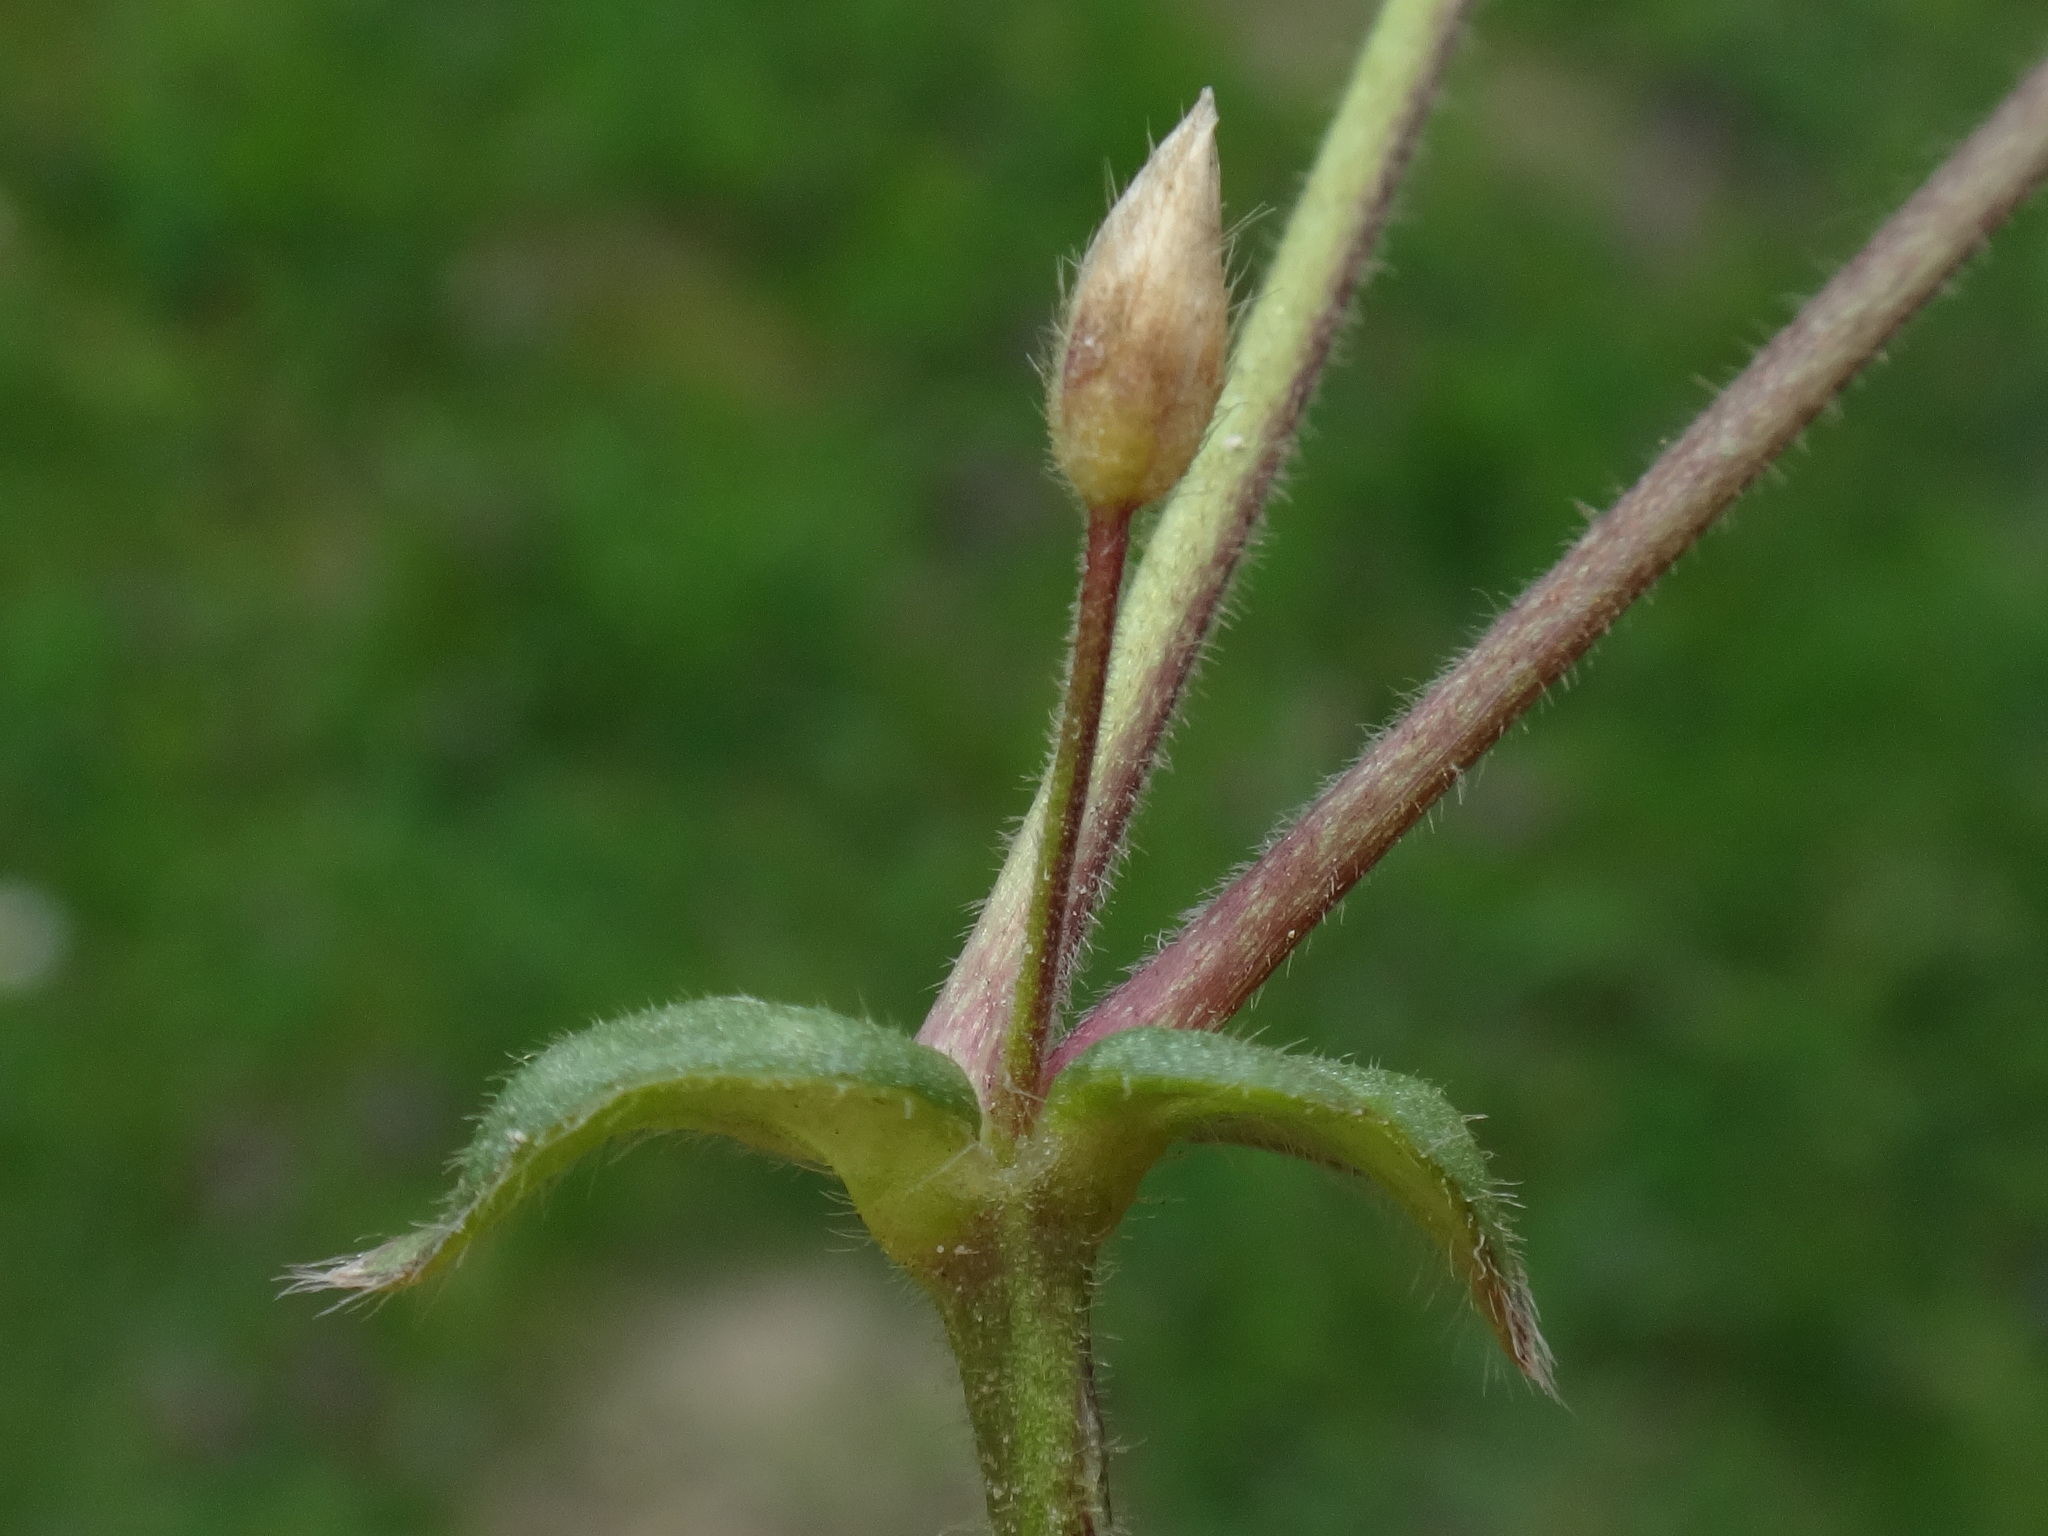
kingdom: Plantae
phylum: Tracheophyta
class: Magnoliopsida
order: Caryophyllales
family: Caryophyllaceae
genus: Cerastium
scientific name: Cerastium holosteoides
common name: Big chickweed
